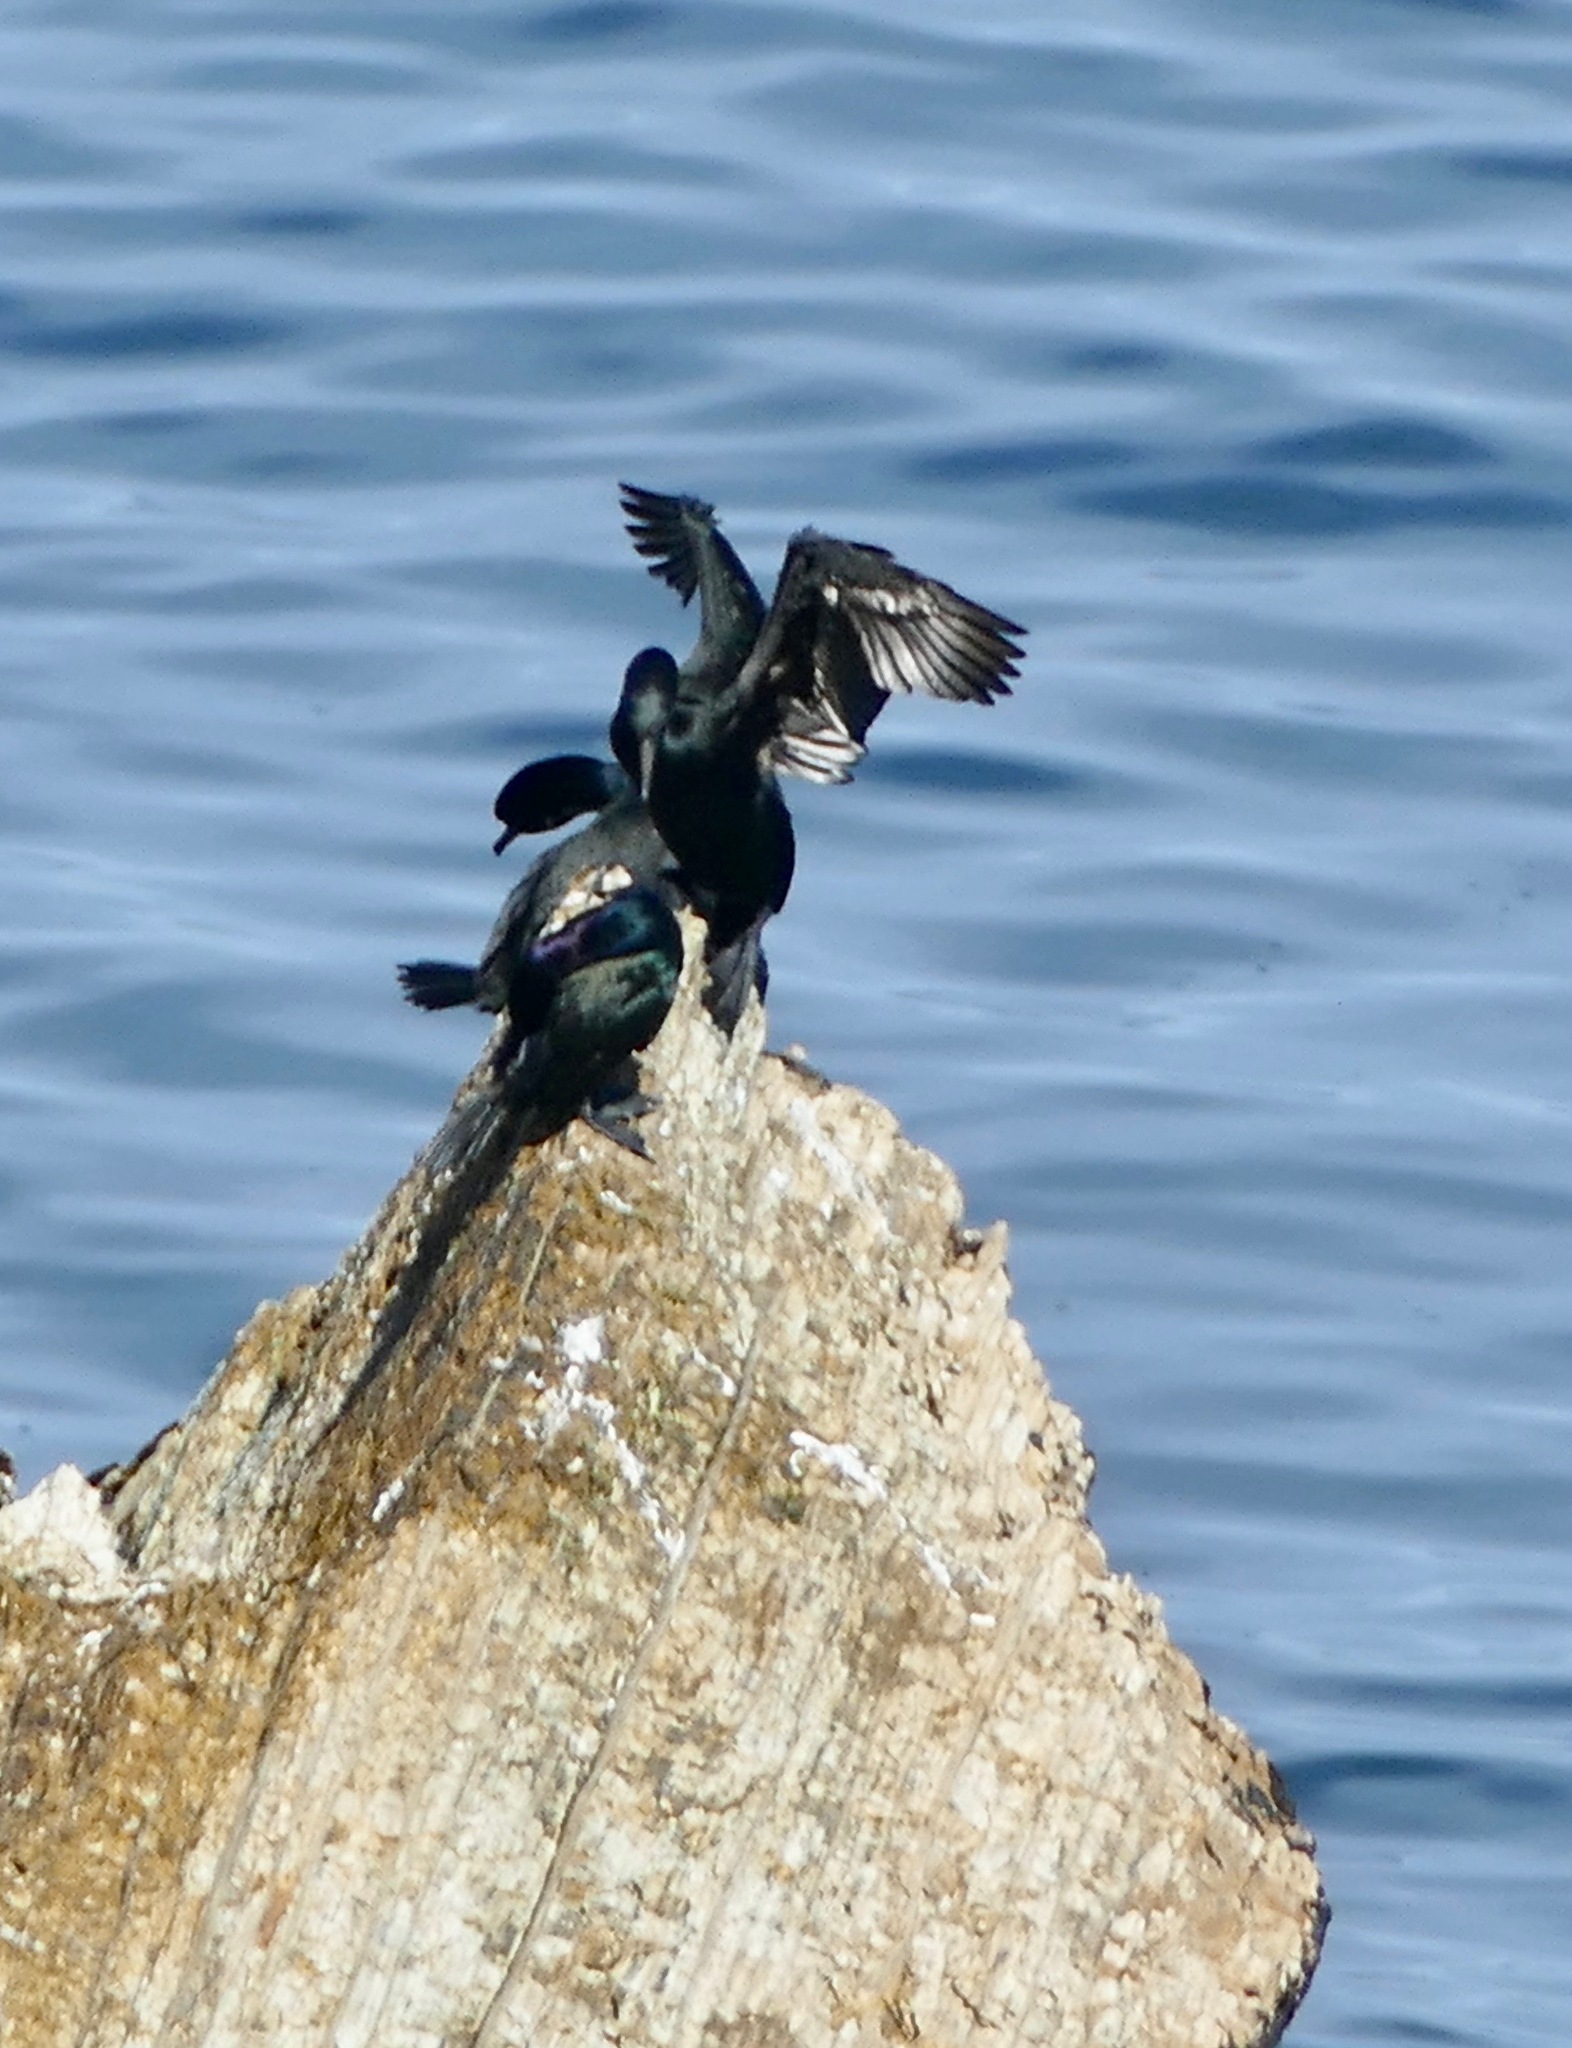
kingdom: Animalia
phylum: Chordata
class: Aves
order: Suliformes
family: Phalacrocoracidae
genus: Phalacrocorax
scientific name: Phalacrocorax pelagicus
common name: Pelagic cormorant
